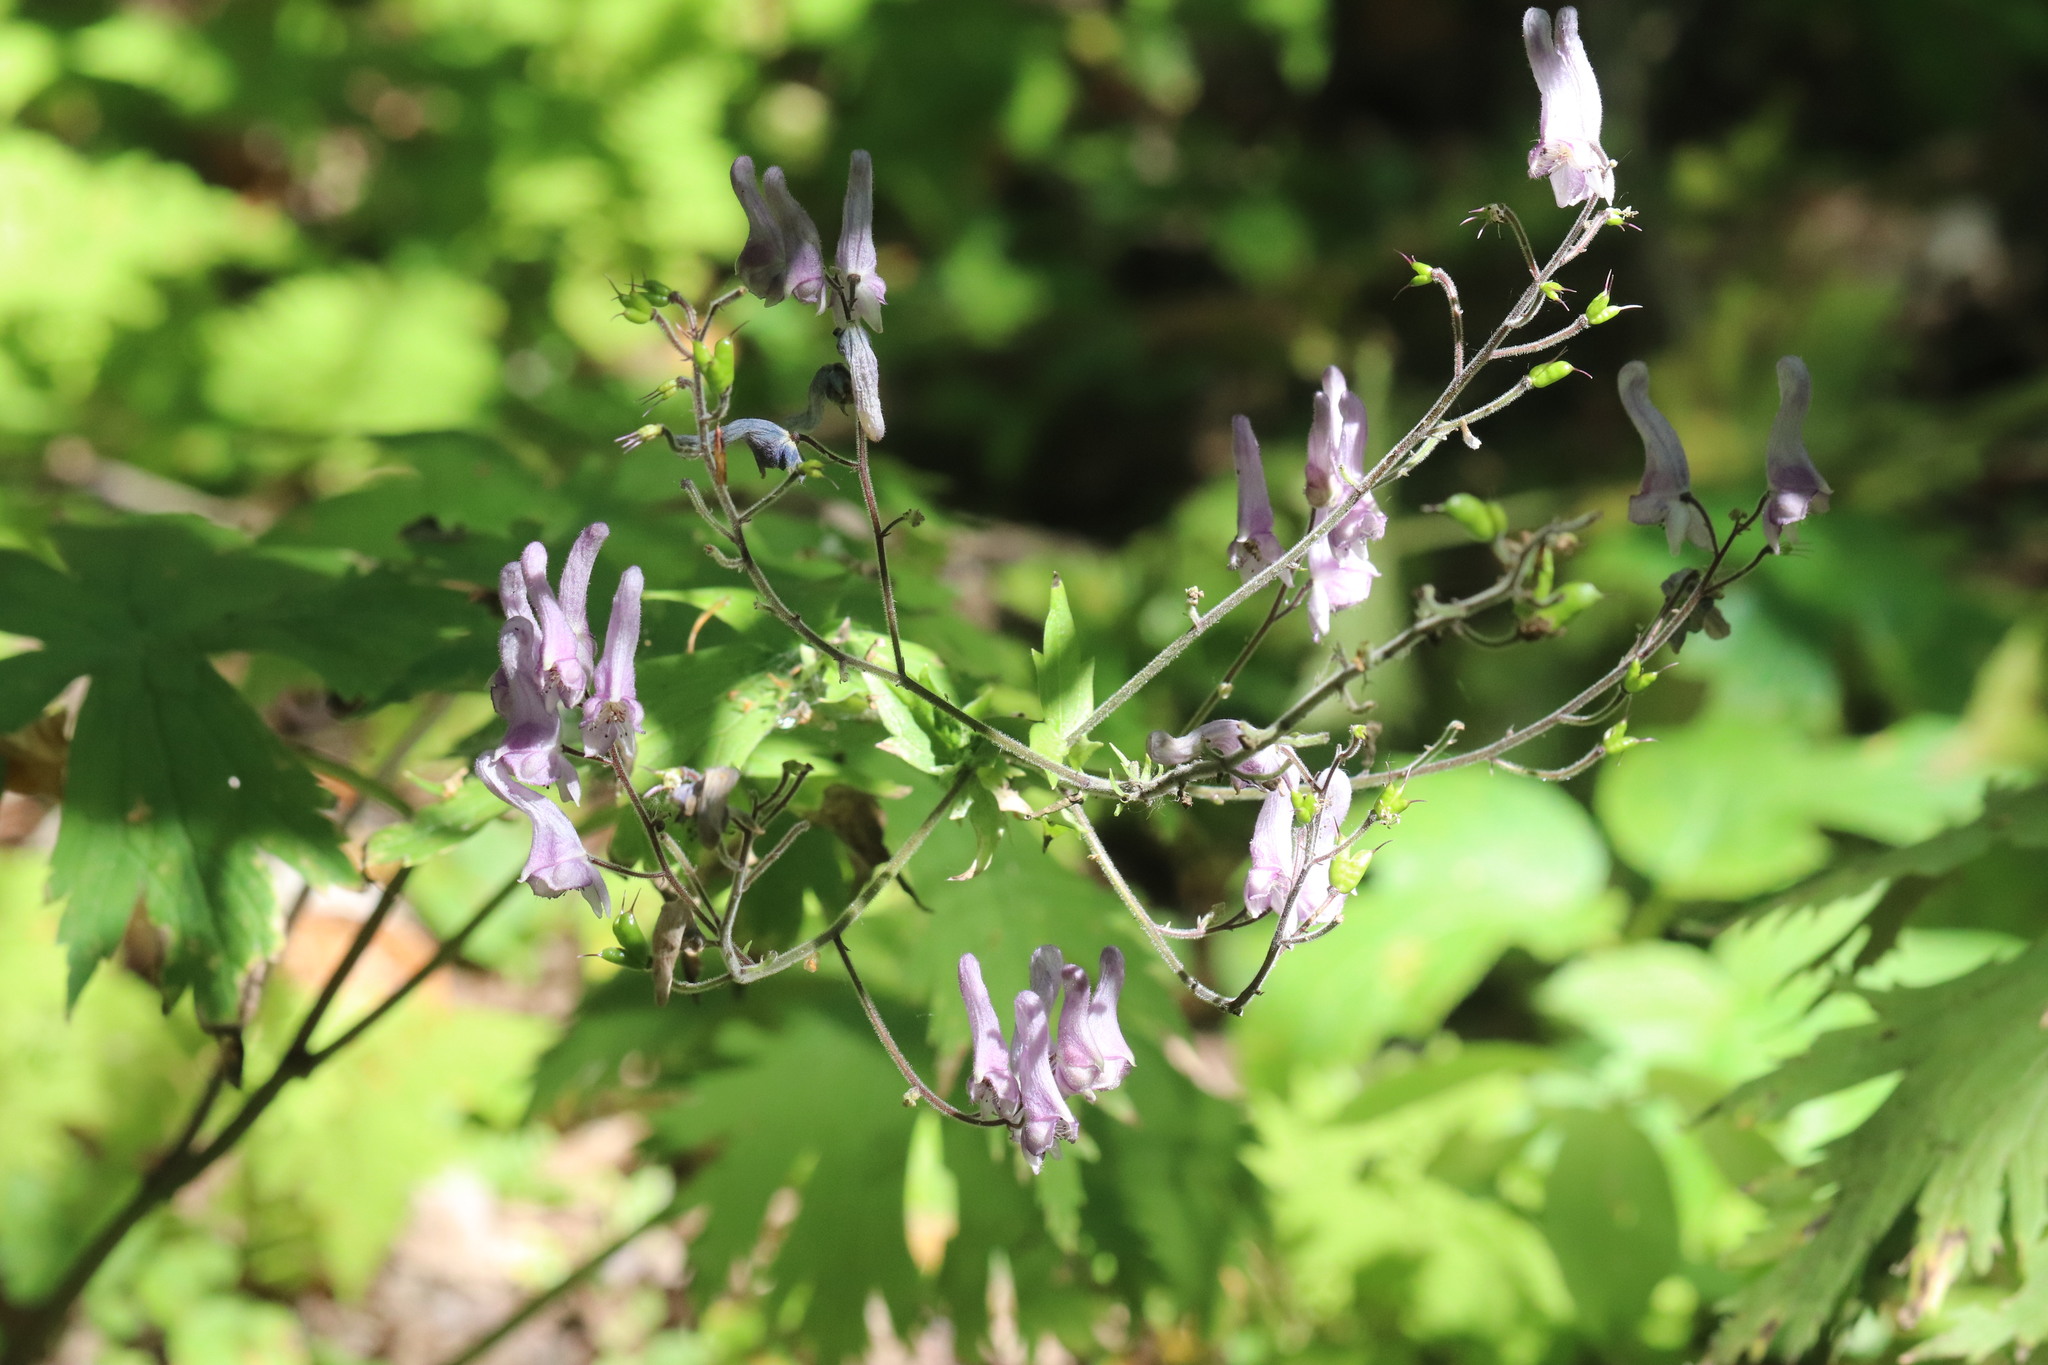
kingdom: Plantae
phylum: Tracheophyta
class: Magnoliopsida
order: Ranunculales
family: Ranunculaceae
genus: Aconitum
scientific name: Aconitum septentrionale
